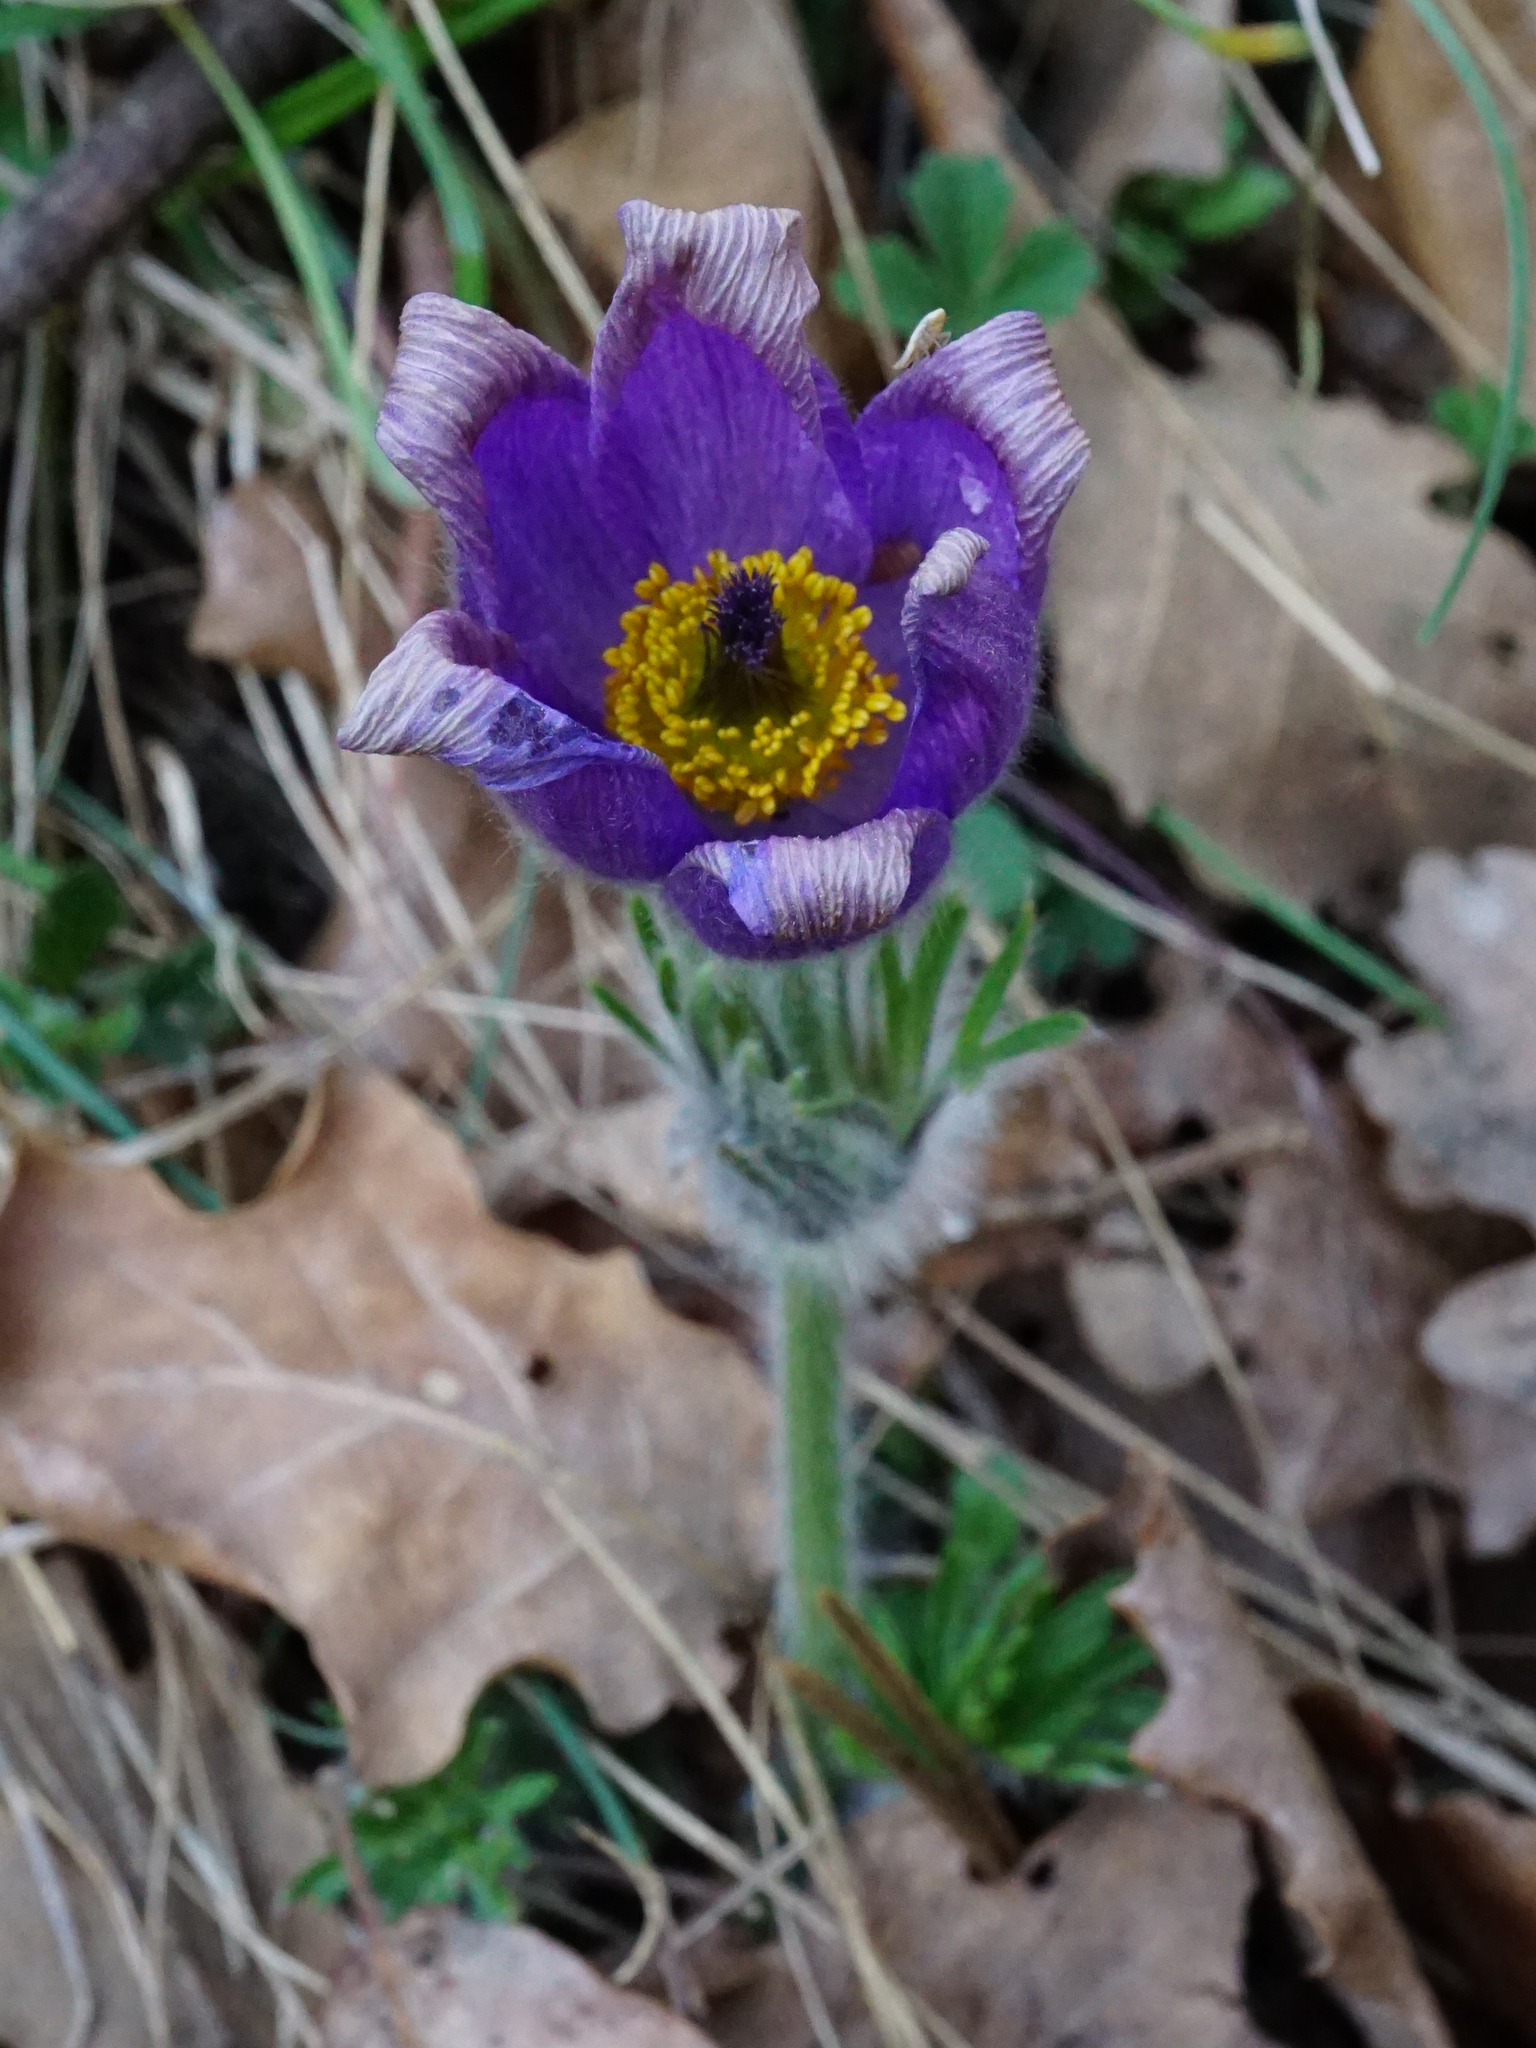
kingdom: Plantae
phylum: Tracheophyta
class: Magnoliopsida
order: Ranunculales
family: Ranunculaceae
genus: Pulsatilla
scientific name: Pulsatilla grandis
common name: Greater pasque flower
